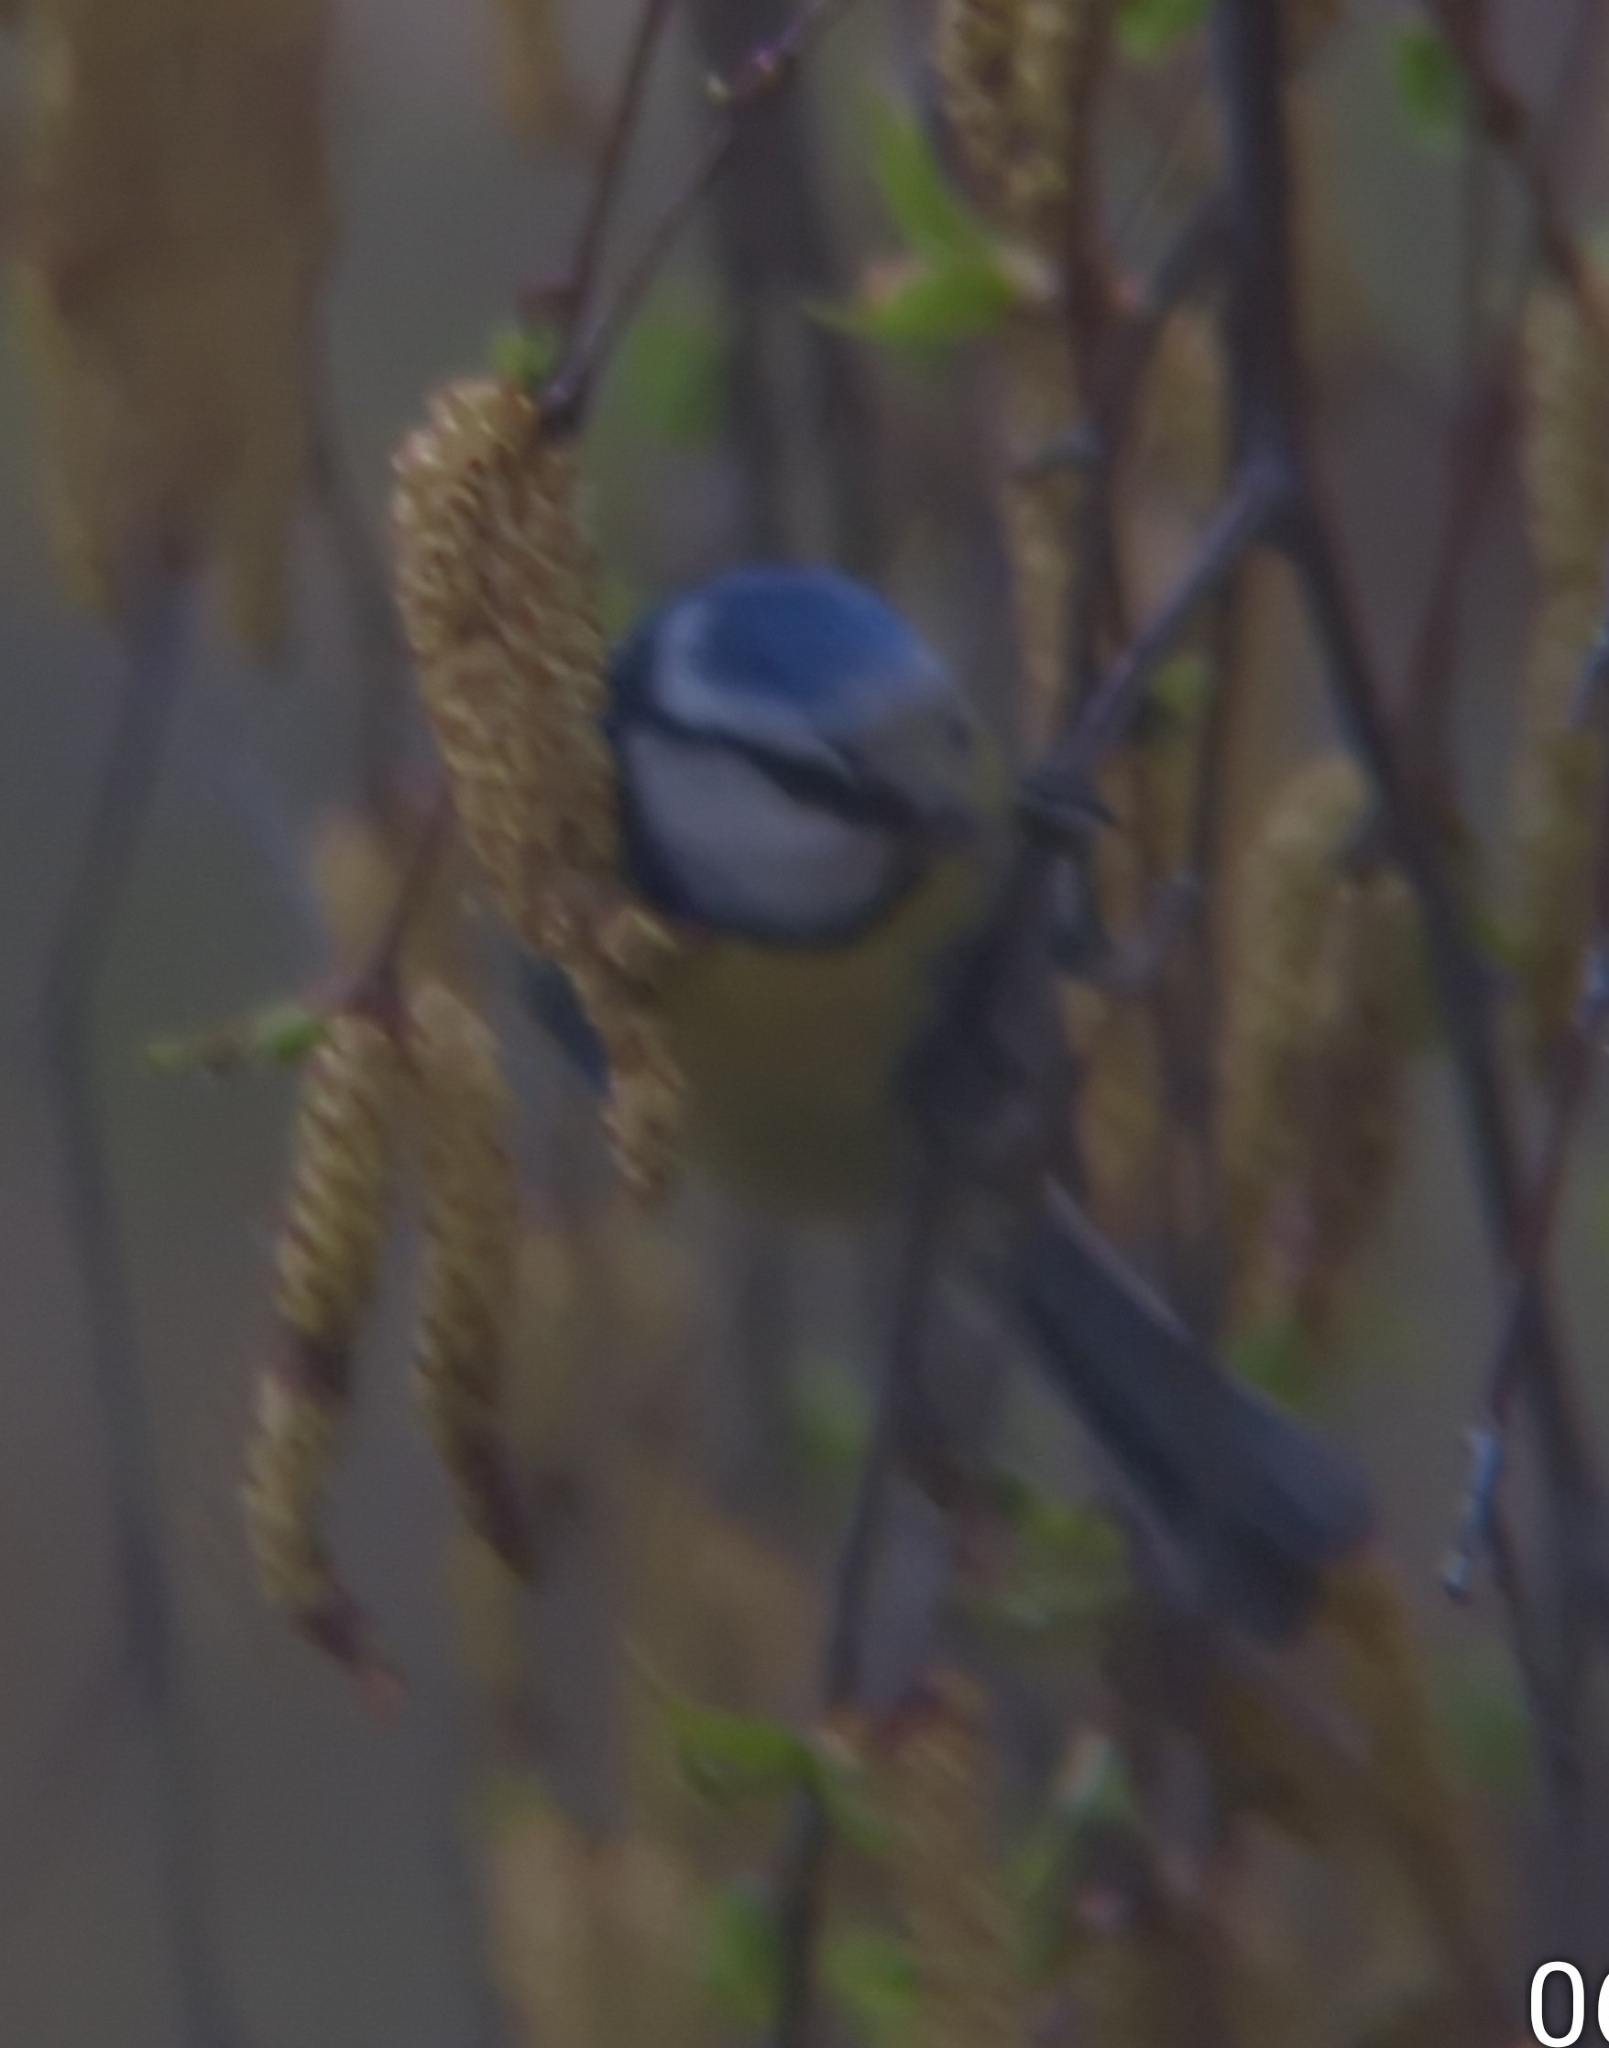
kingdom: Animalia
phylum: Chordata
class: Aves
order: Passeriformes
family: Paridae
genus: Cyanistes
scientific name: Cyanistes caeruleus
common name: Eurasian blue tit
